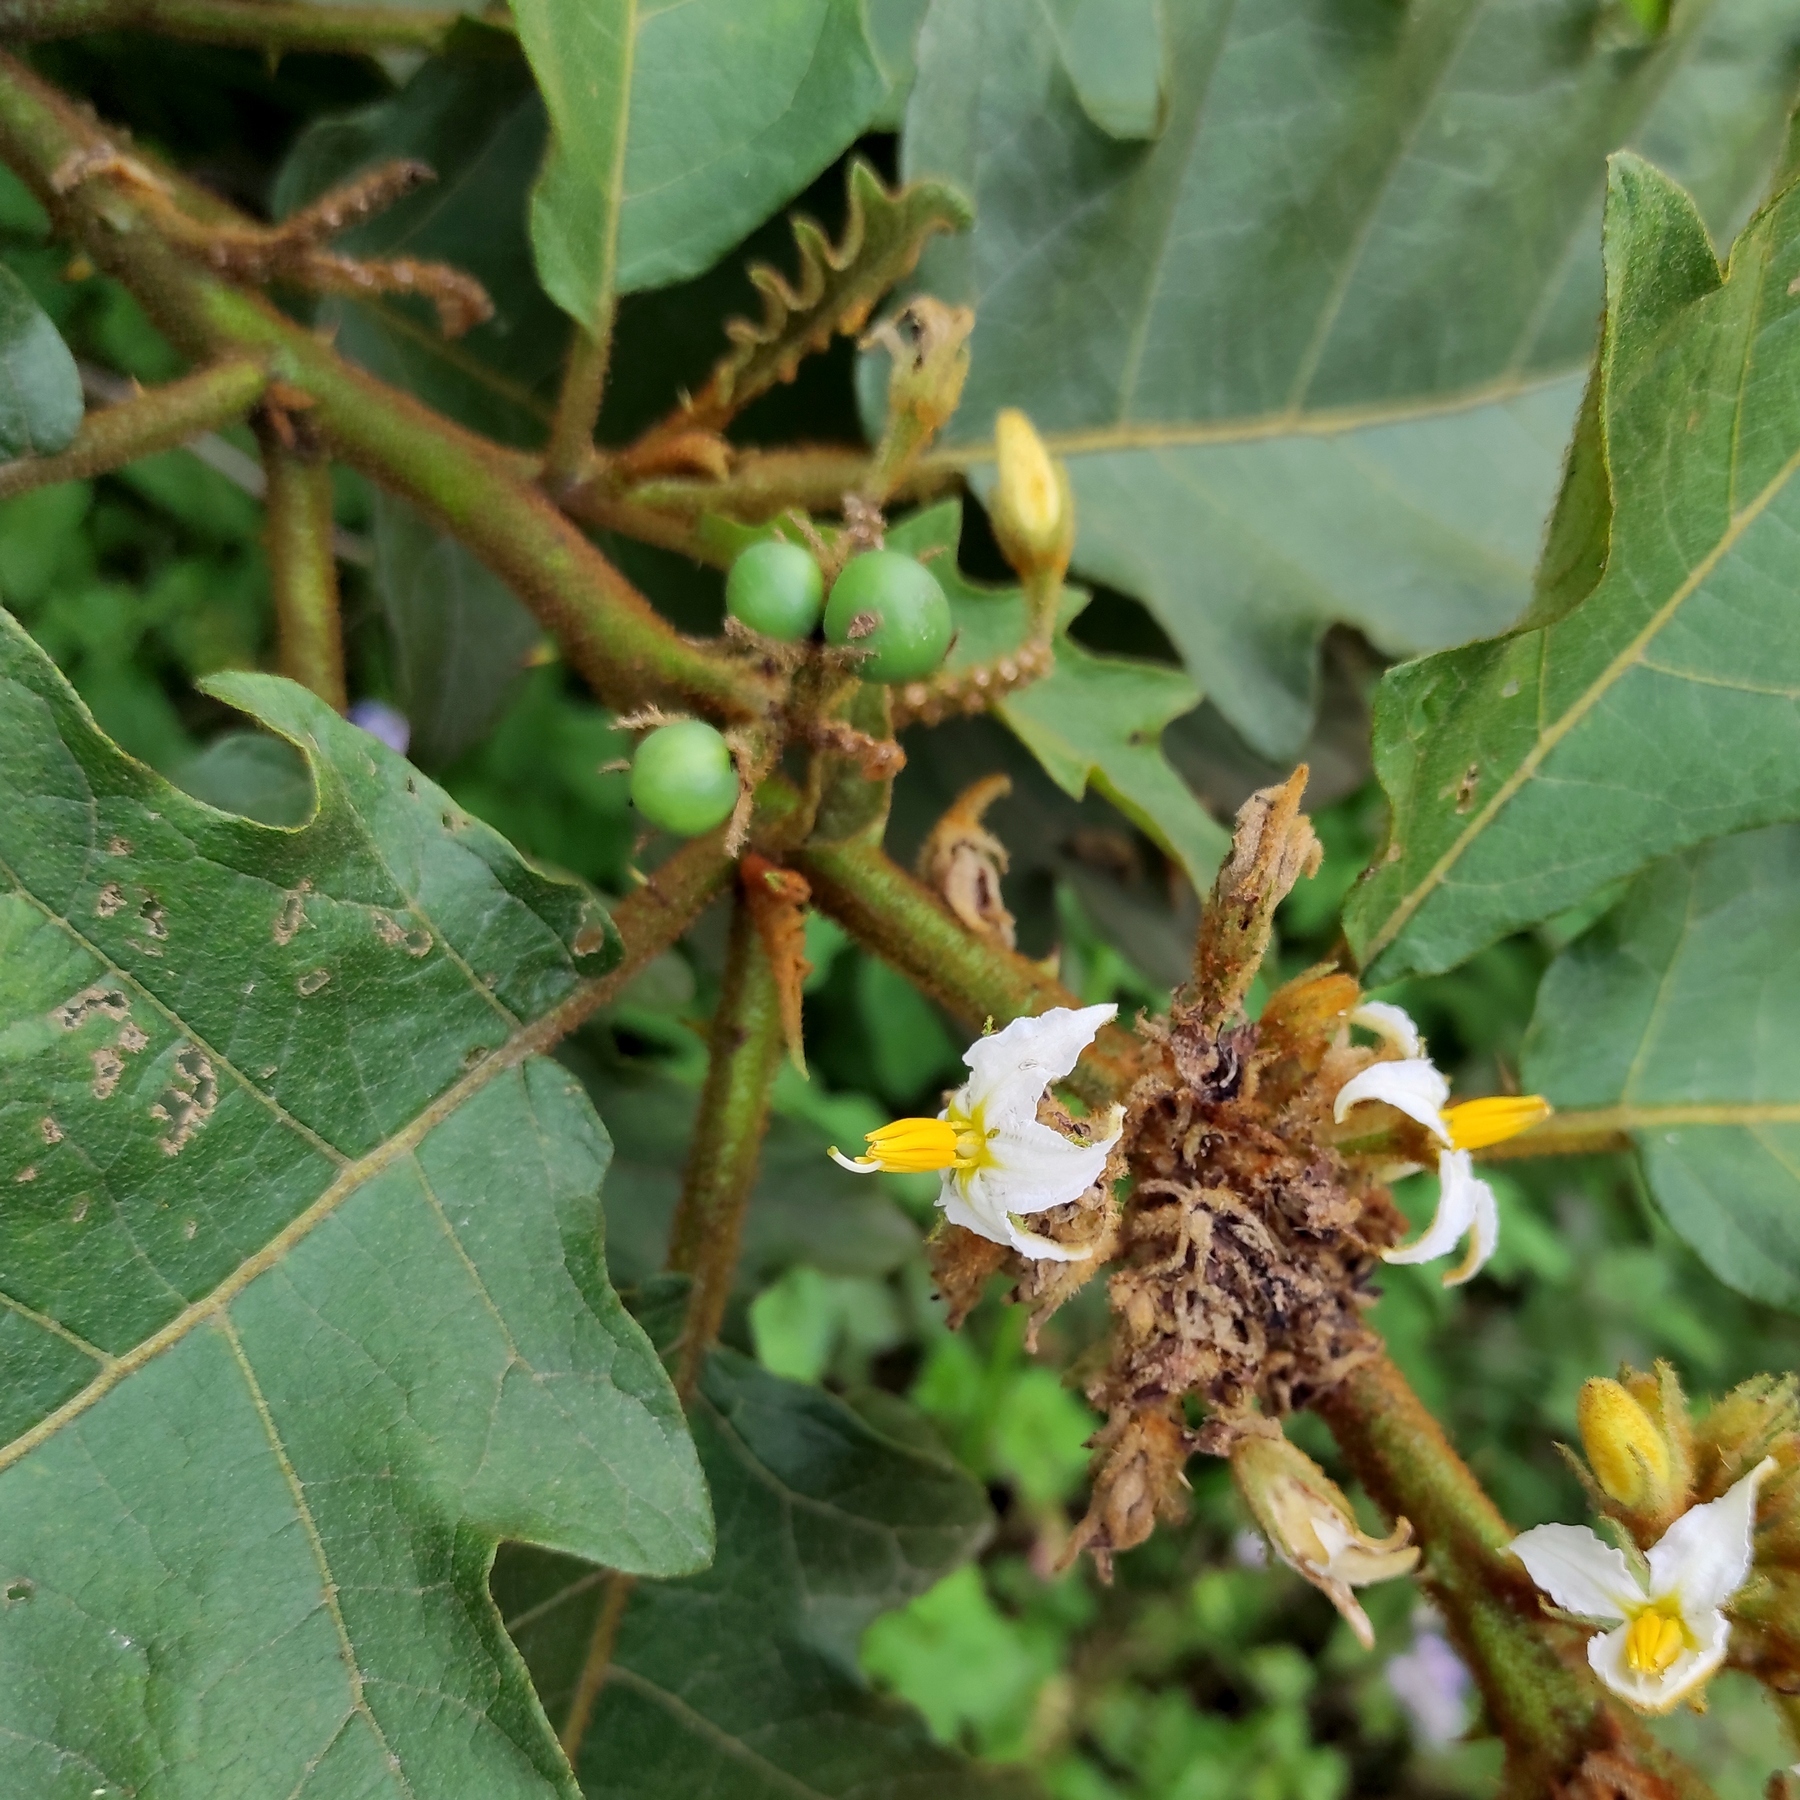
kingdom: Plantae
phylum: Tracheophyta
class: Magnoliopsida
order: Solanales
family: Solanaceae
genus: Solanum
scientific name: Solanum chrysotrichum
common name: Nightshade
